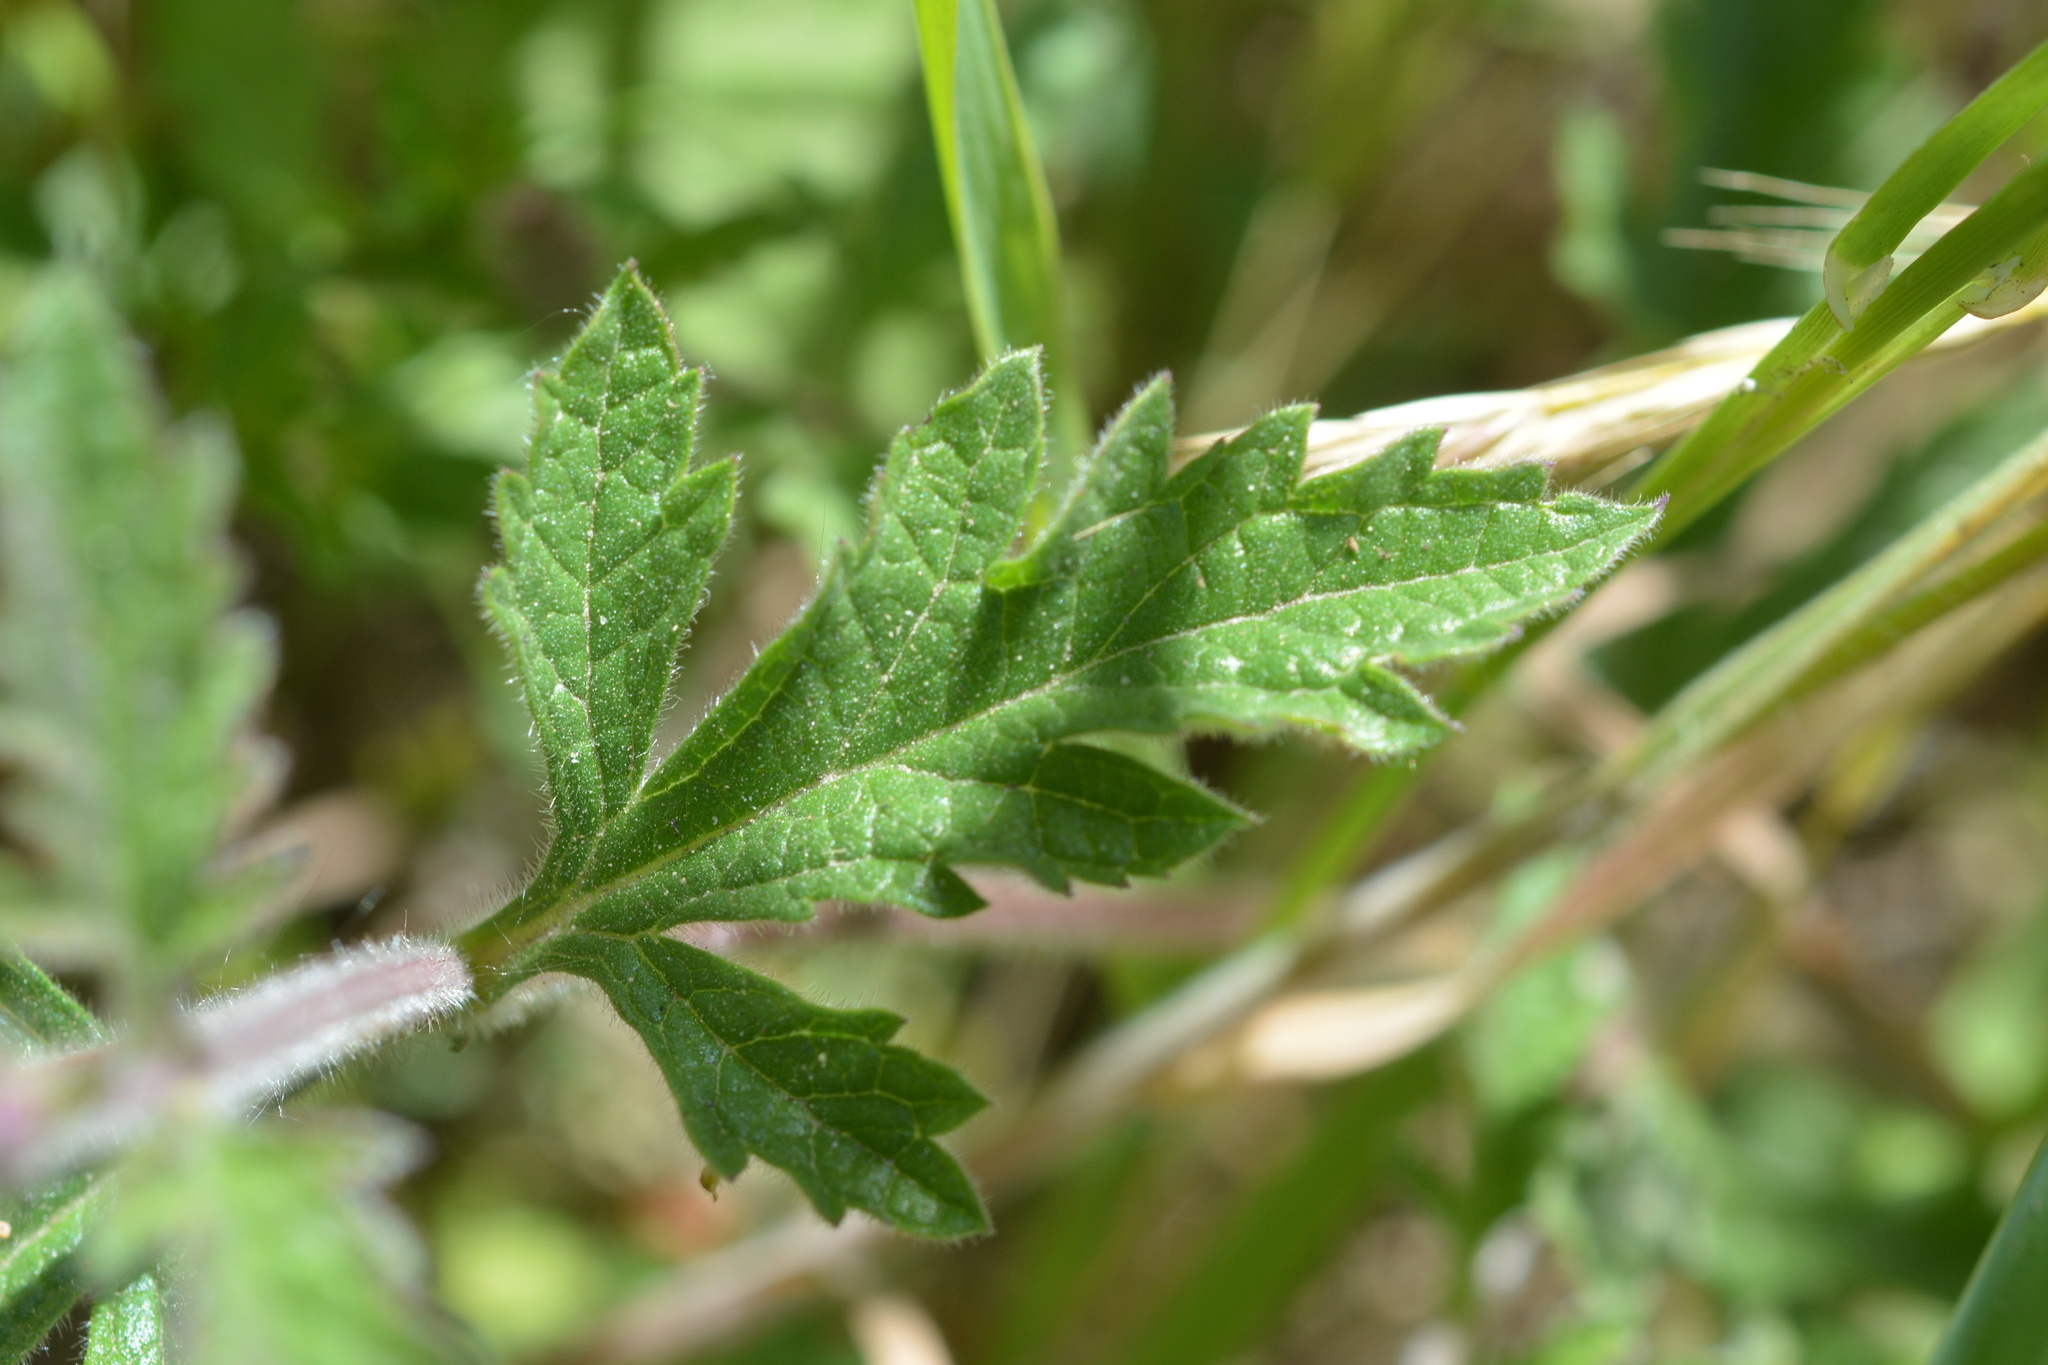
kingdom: Plantae
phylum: Tracheophyta
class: Magnoliopsida
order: Lamiales
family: Verbenaceae
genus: Verbena
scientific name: Verbena lasiostachys
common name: Vervain
